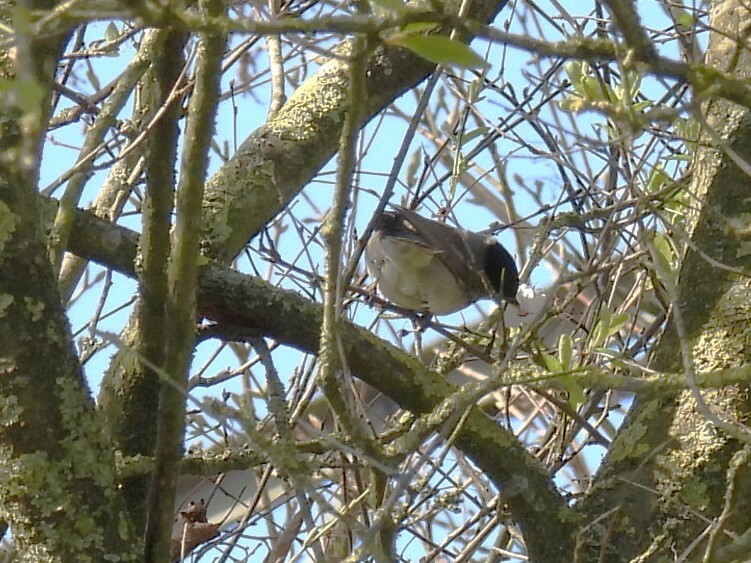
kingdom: Animalia
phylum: Chordata
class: Aves
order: Passeriformes
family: Sylviidae
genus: Sylvia
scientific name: Sylvia atricapilla
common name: Eurasian blackcap
